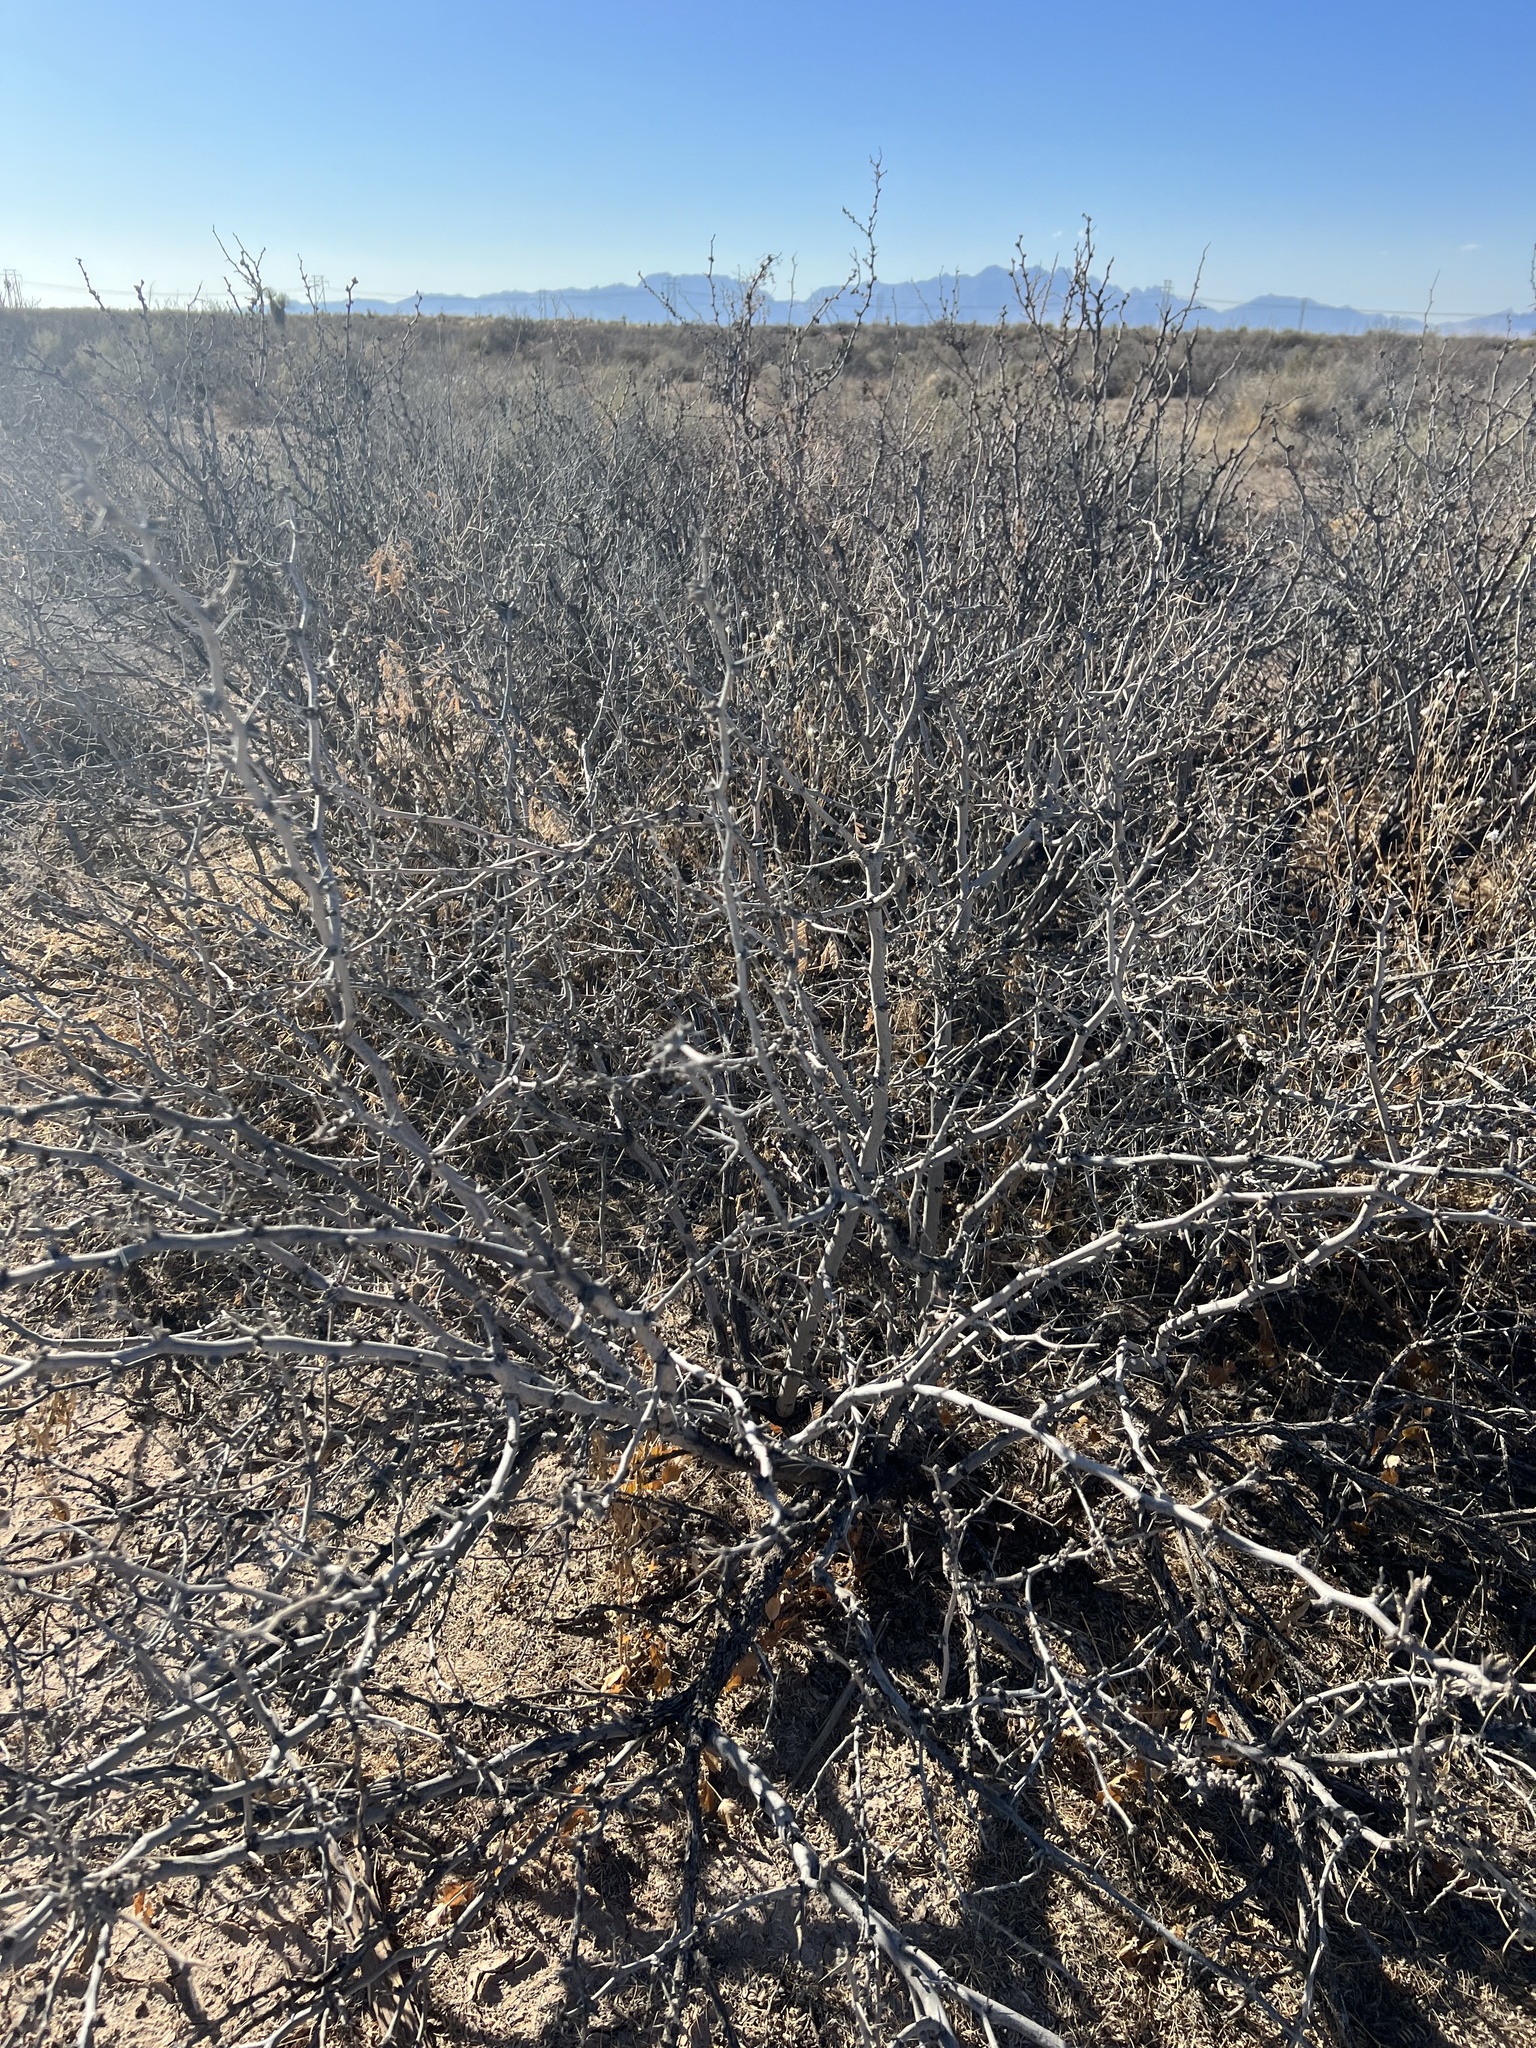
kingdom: Plantae
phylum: Tracheophyta
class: Magnoliopsida
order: Fabales
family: Fabaceae
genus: Prosopis
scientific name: Prosopis glandulosa
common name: Honey mesquite
